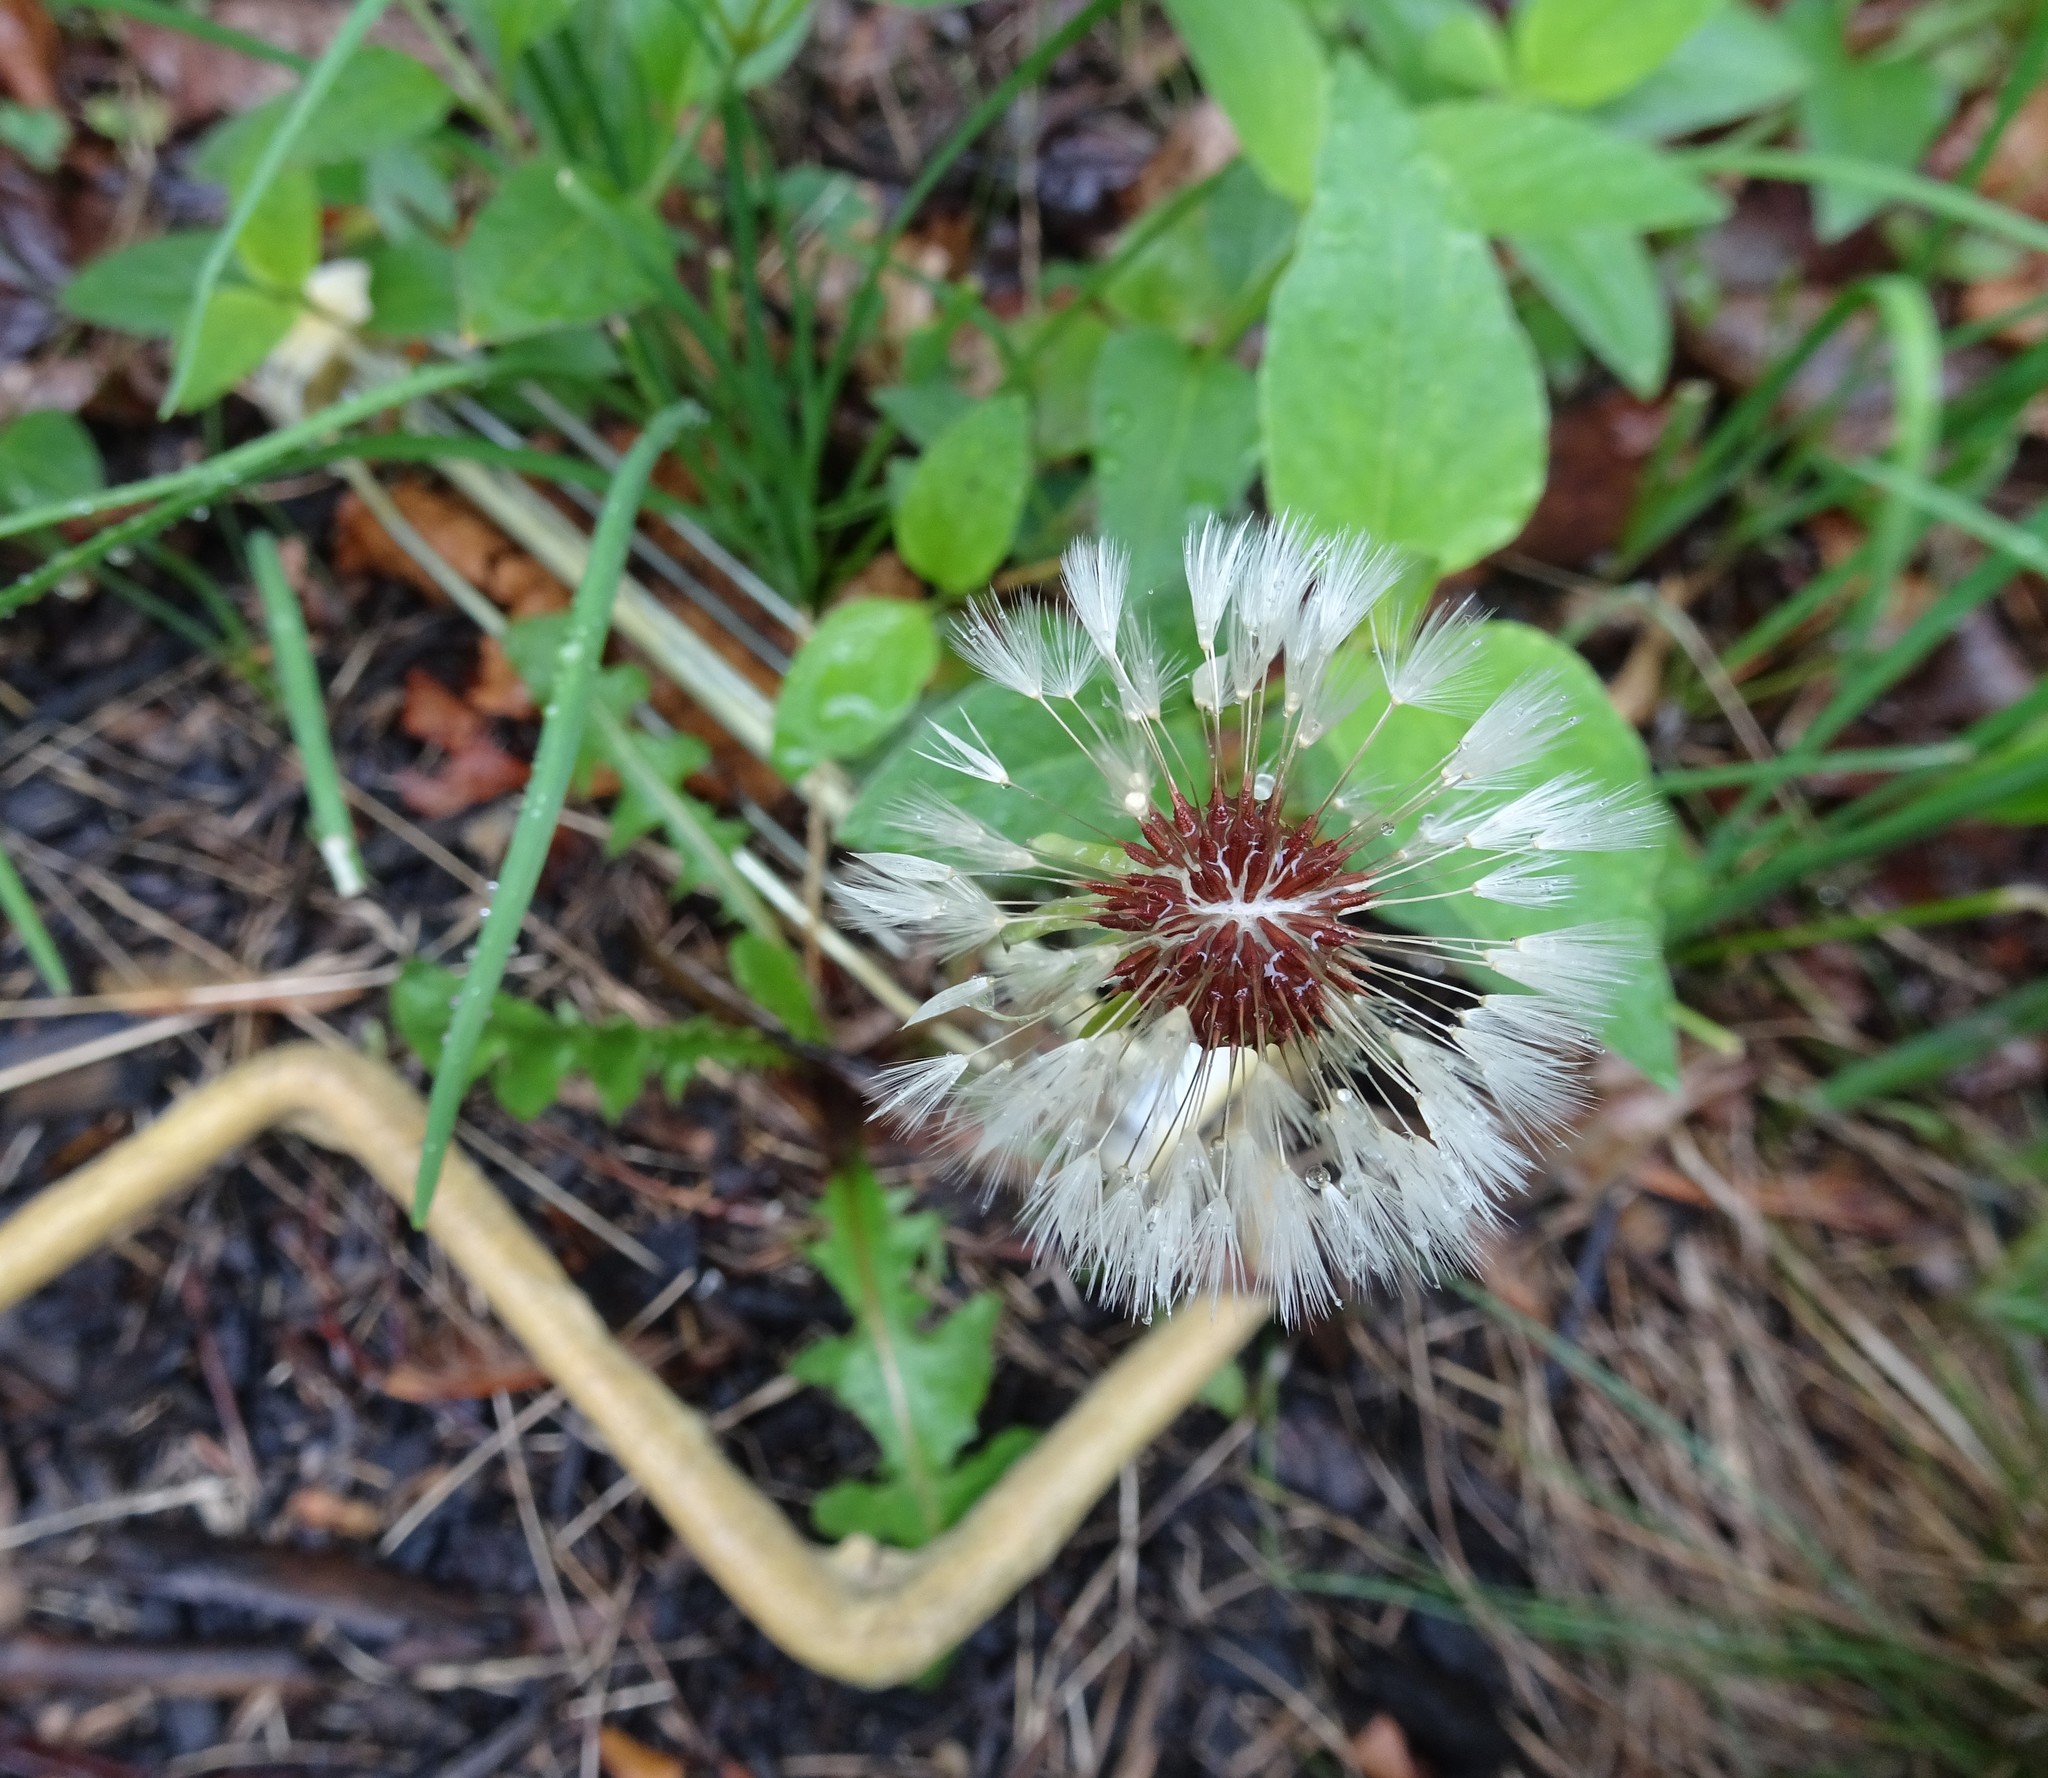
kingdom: Plantae
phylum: Tracheophyta
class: Magnoliopsida
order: Asterales
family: Asteraceae
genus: Taraxacum
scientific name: Taraxacum erythrospermum
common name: Rock dandelion
